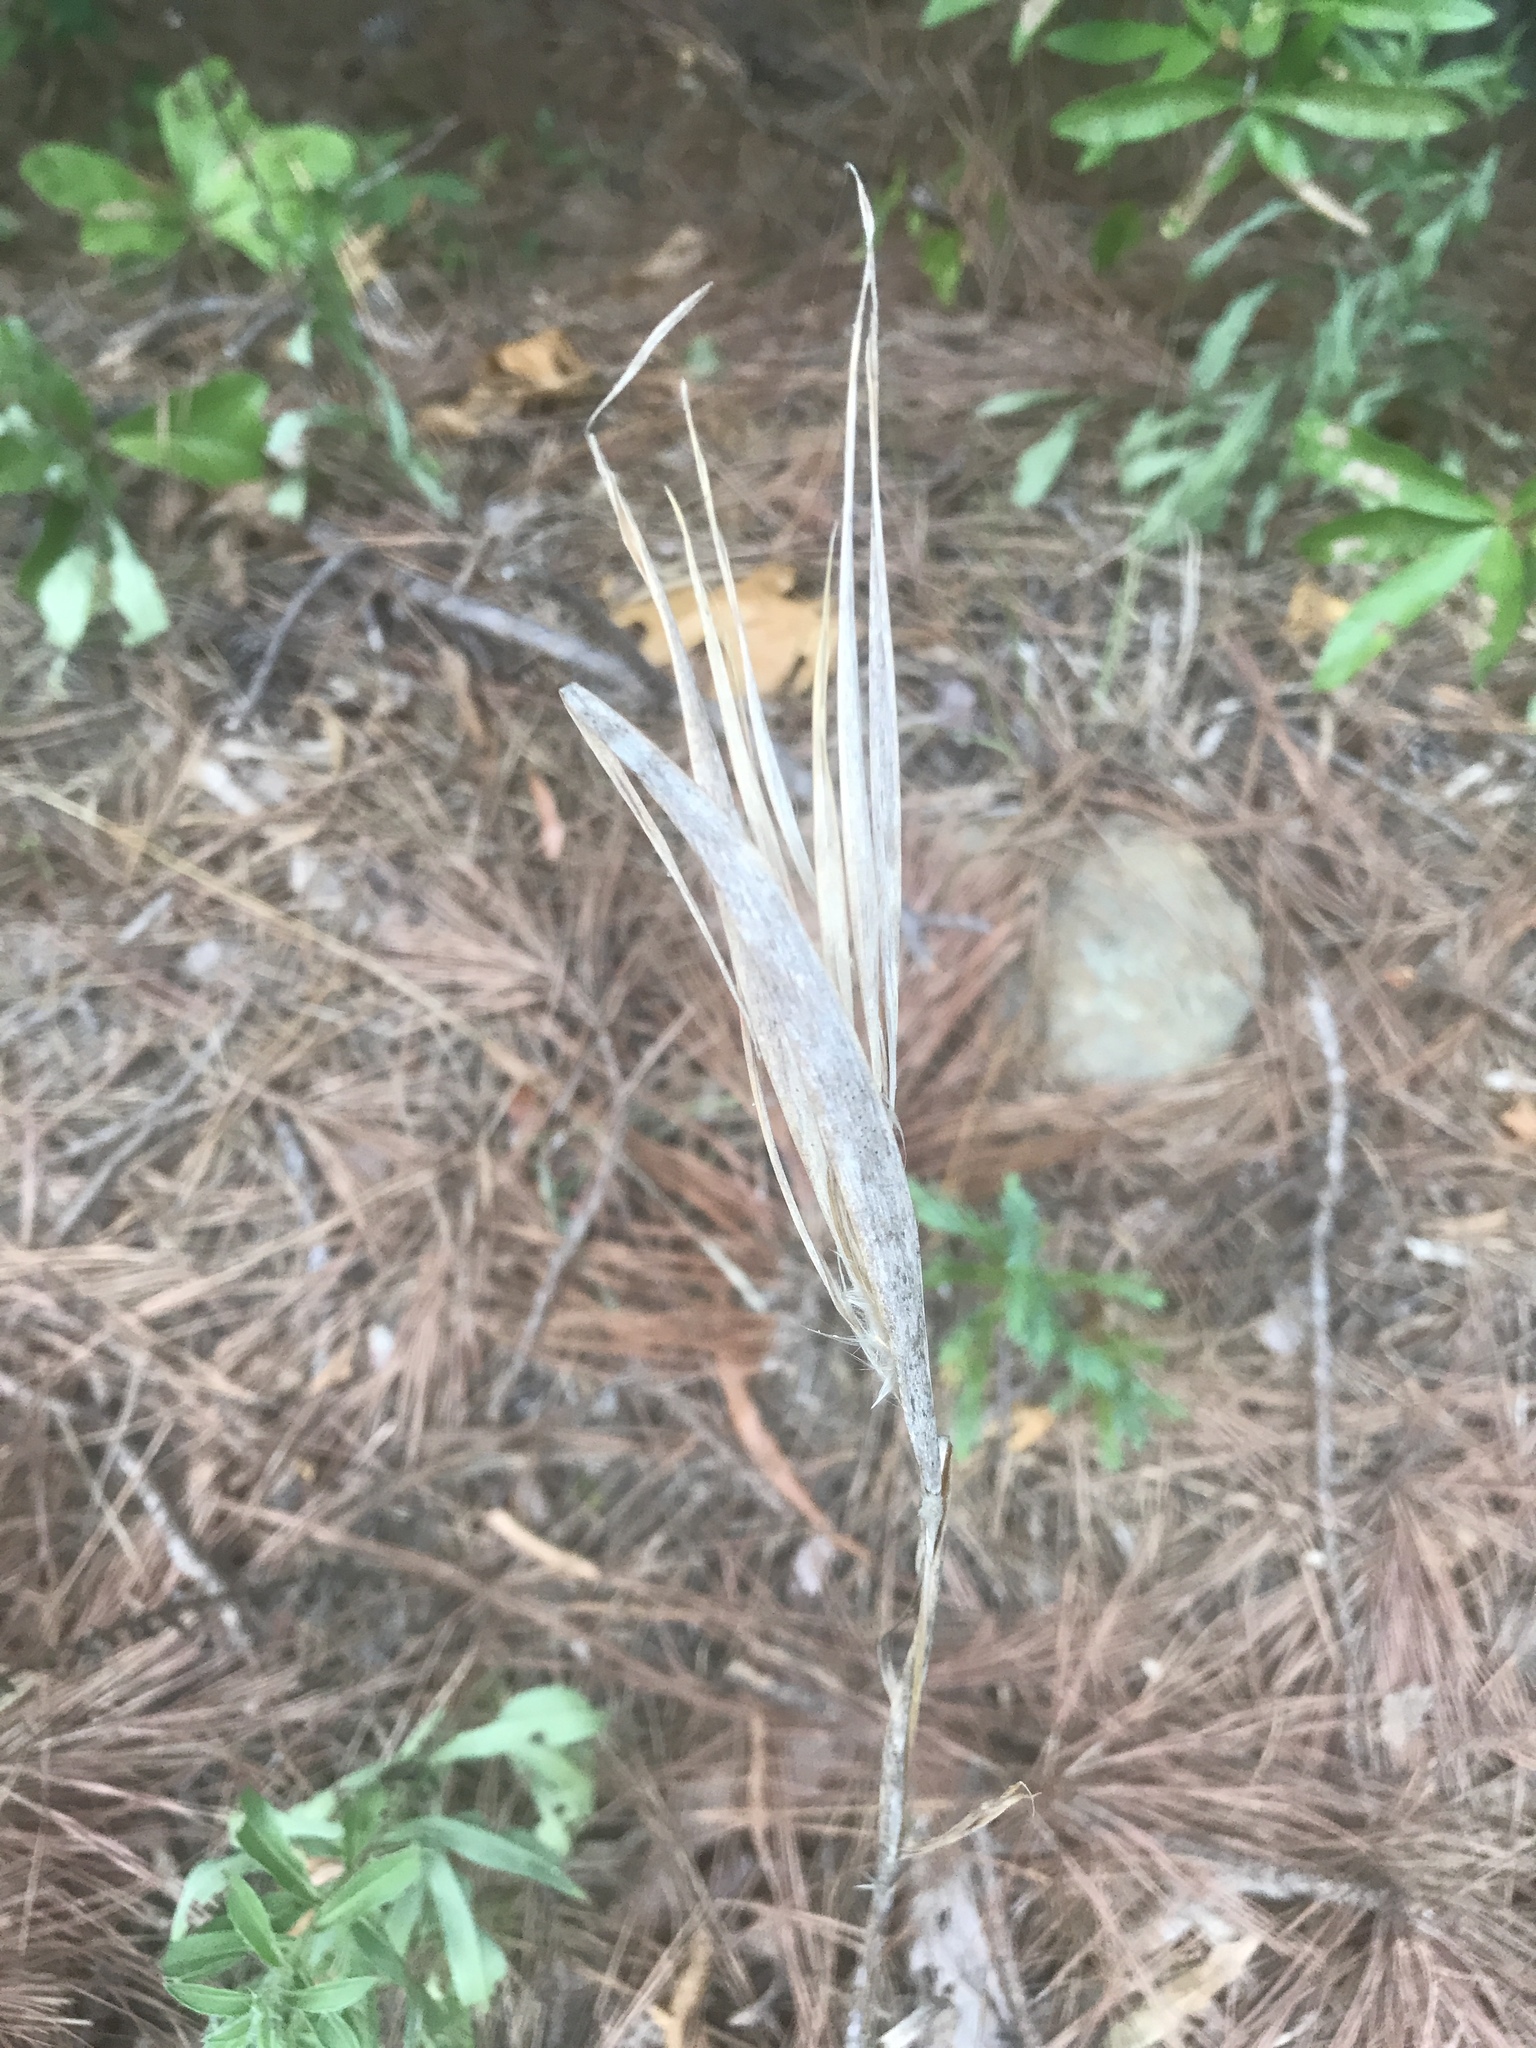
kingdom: Plantae
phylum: Tracheophyta
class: Liliopsida
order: Poales
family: Poaceae
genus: Andropogon
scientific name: Andropogon gyrans
